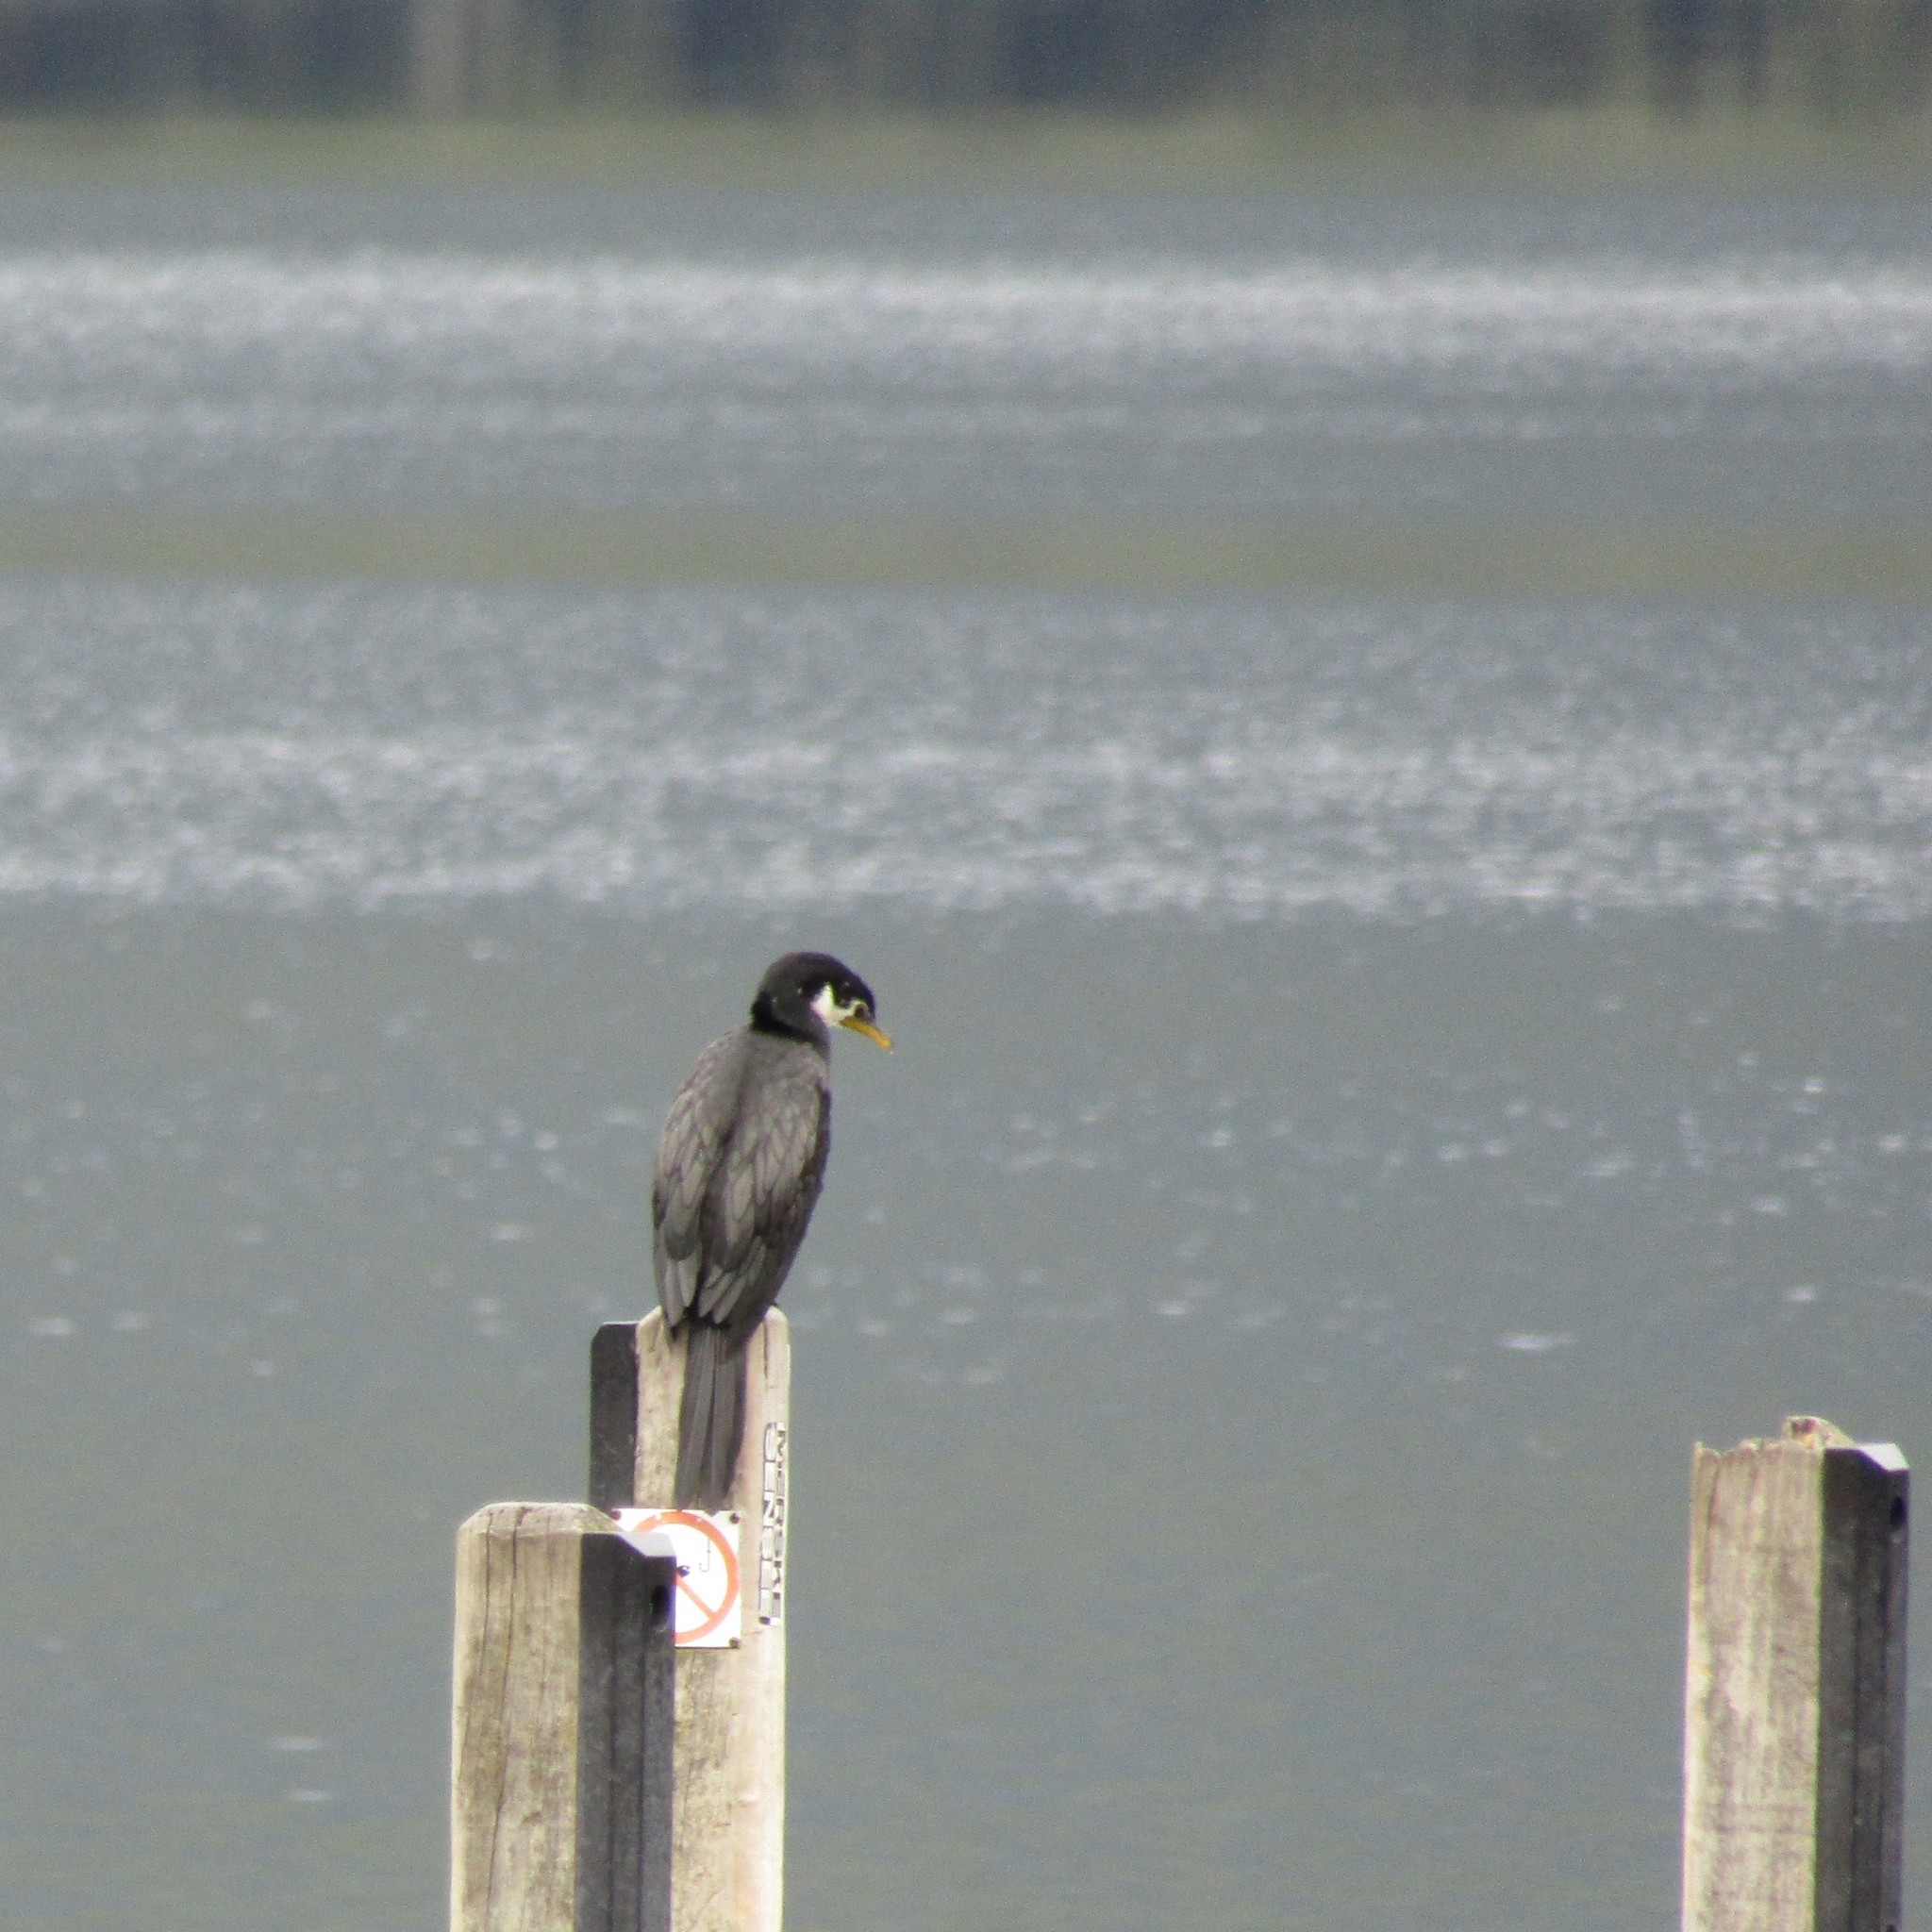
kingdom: Animalia
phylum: Chordata
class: Aves
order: Suliformes
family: Phalacrocoracidae
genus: Microcarbo
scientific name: Microcarbo melanoleucos
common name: Little pied cormorant
